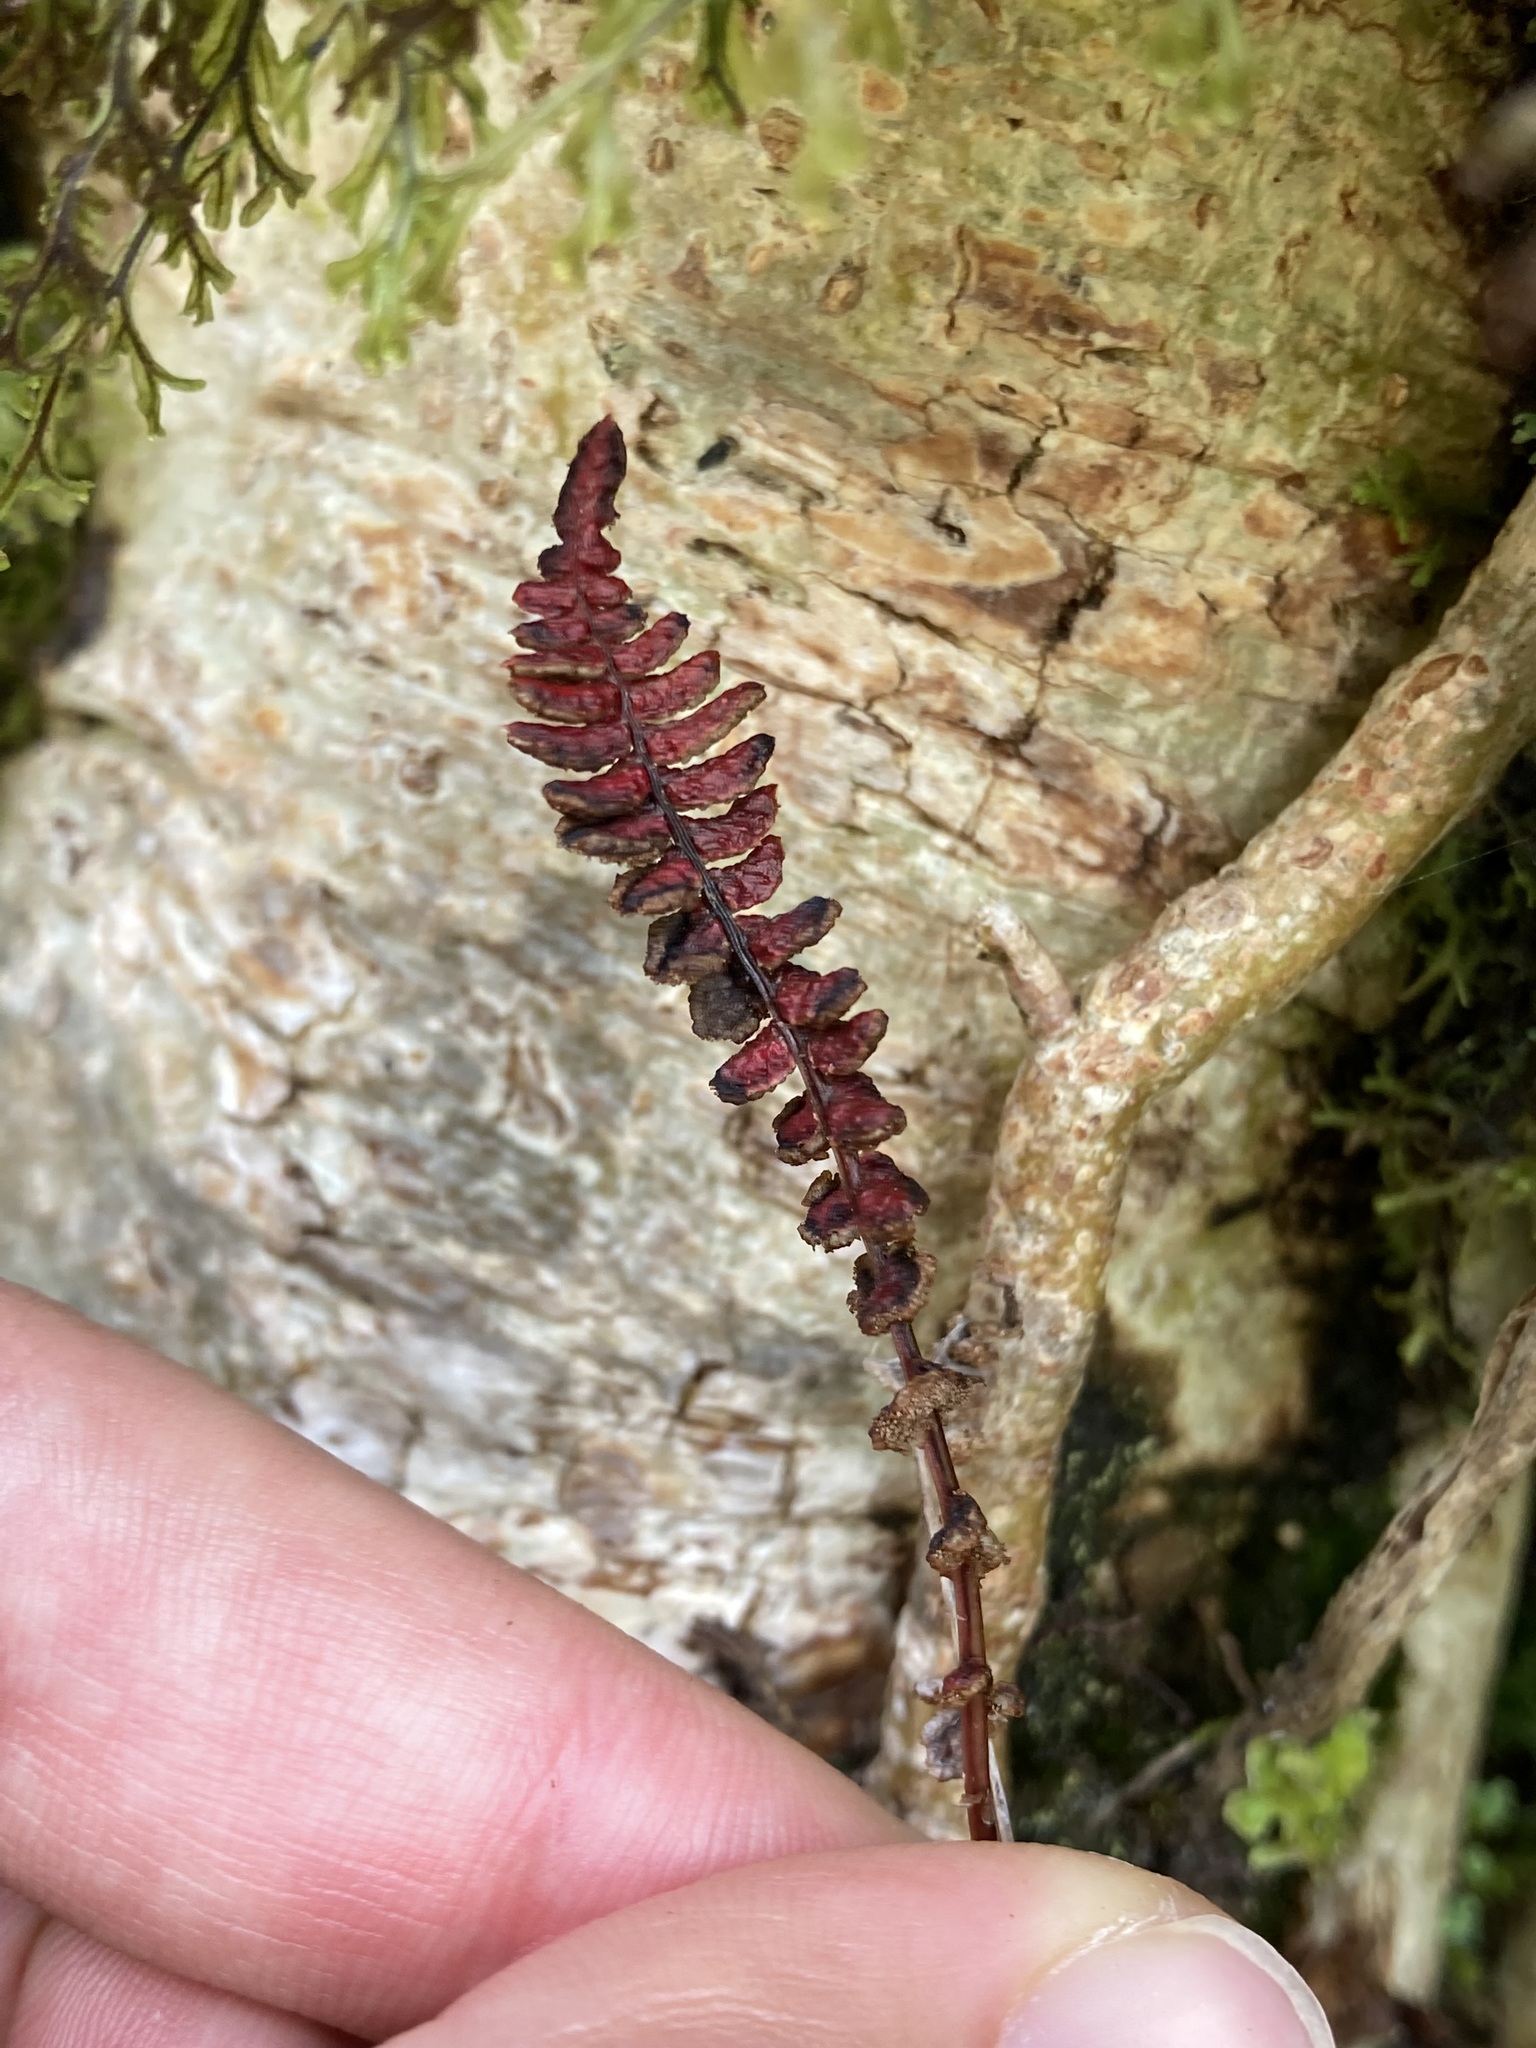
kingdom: Plantae
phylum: Tracheophyta
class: Polypodiopsida
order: Polypodiales
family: Blechnaceae
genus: Austroblechnum
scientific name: Austroblechnum penna-marina
